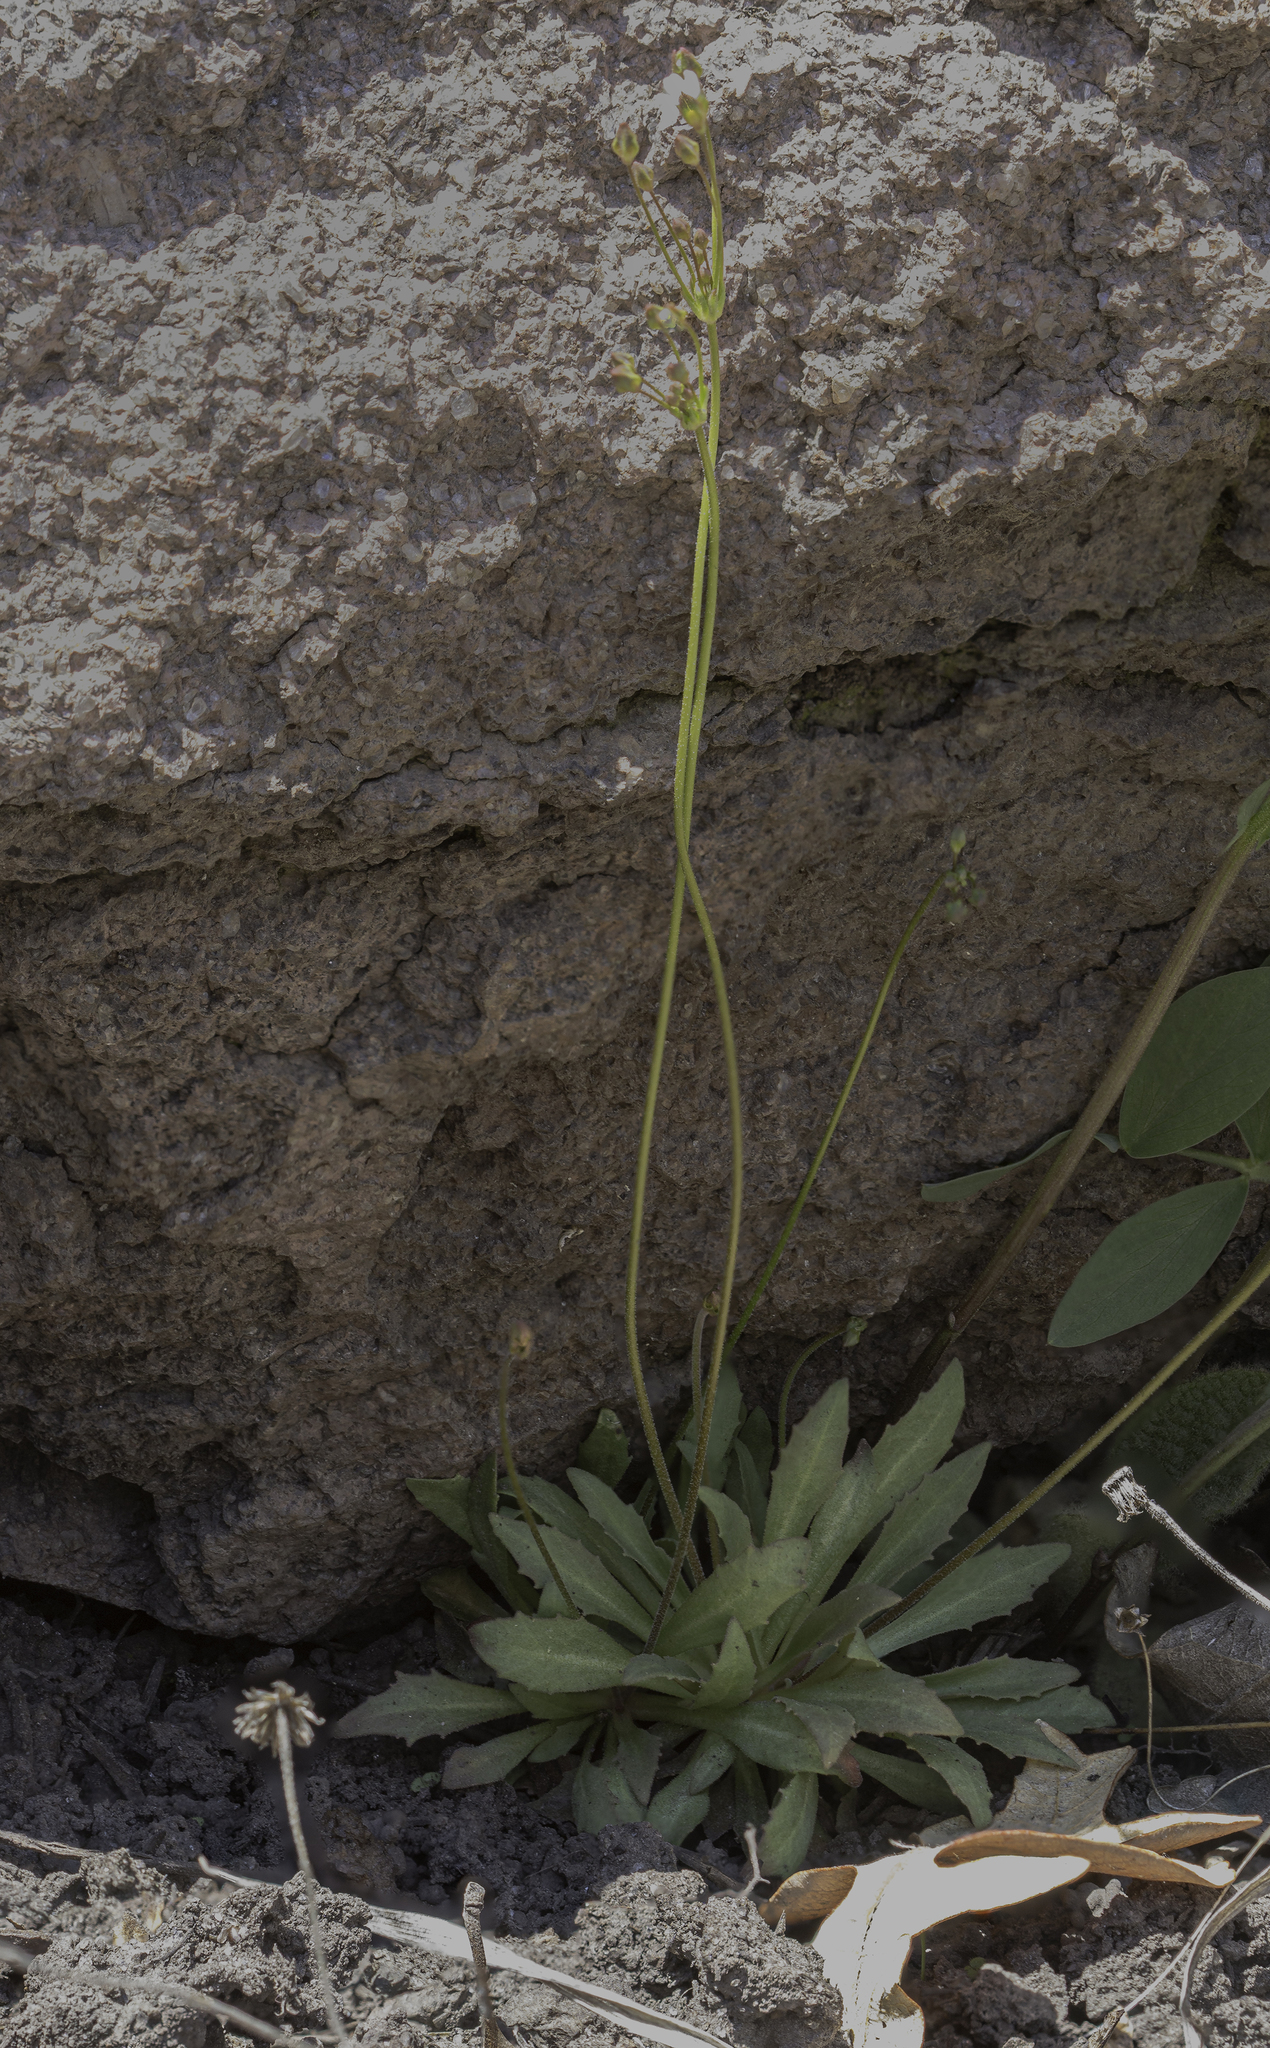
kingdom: Plantae
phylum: Tracheophyta
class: Magnoliopsida
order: Ericales
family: Primulaceae
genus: Androsace
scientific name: Androsace septentrionalis
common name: Hairy northern fairy-candelabra
